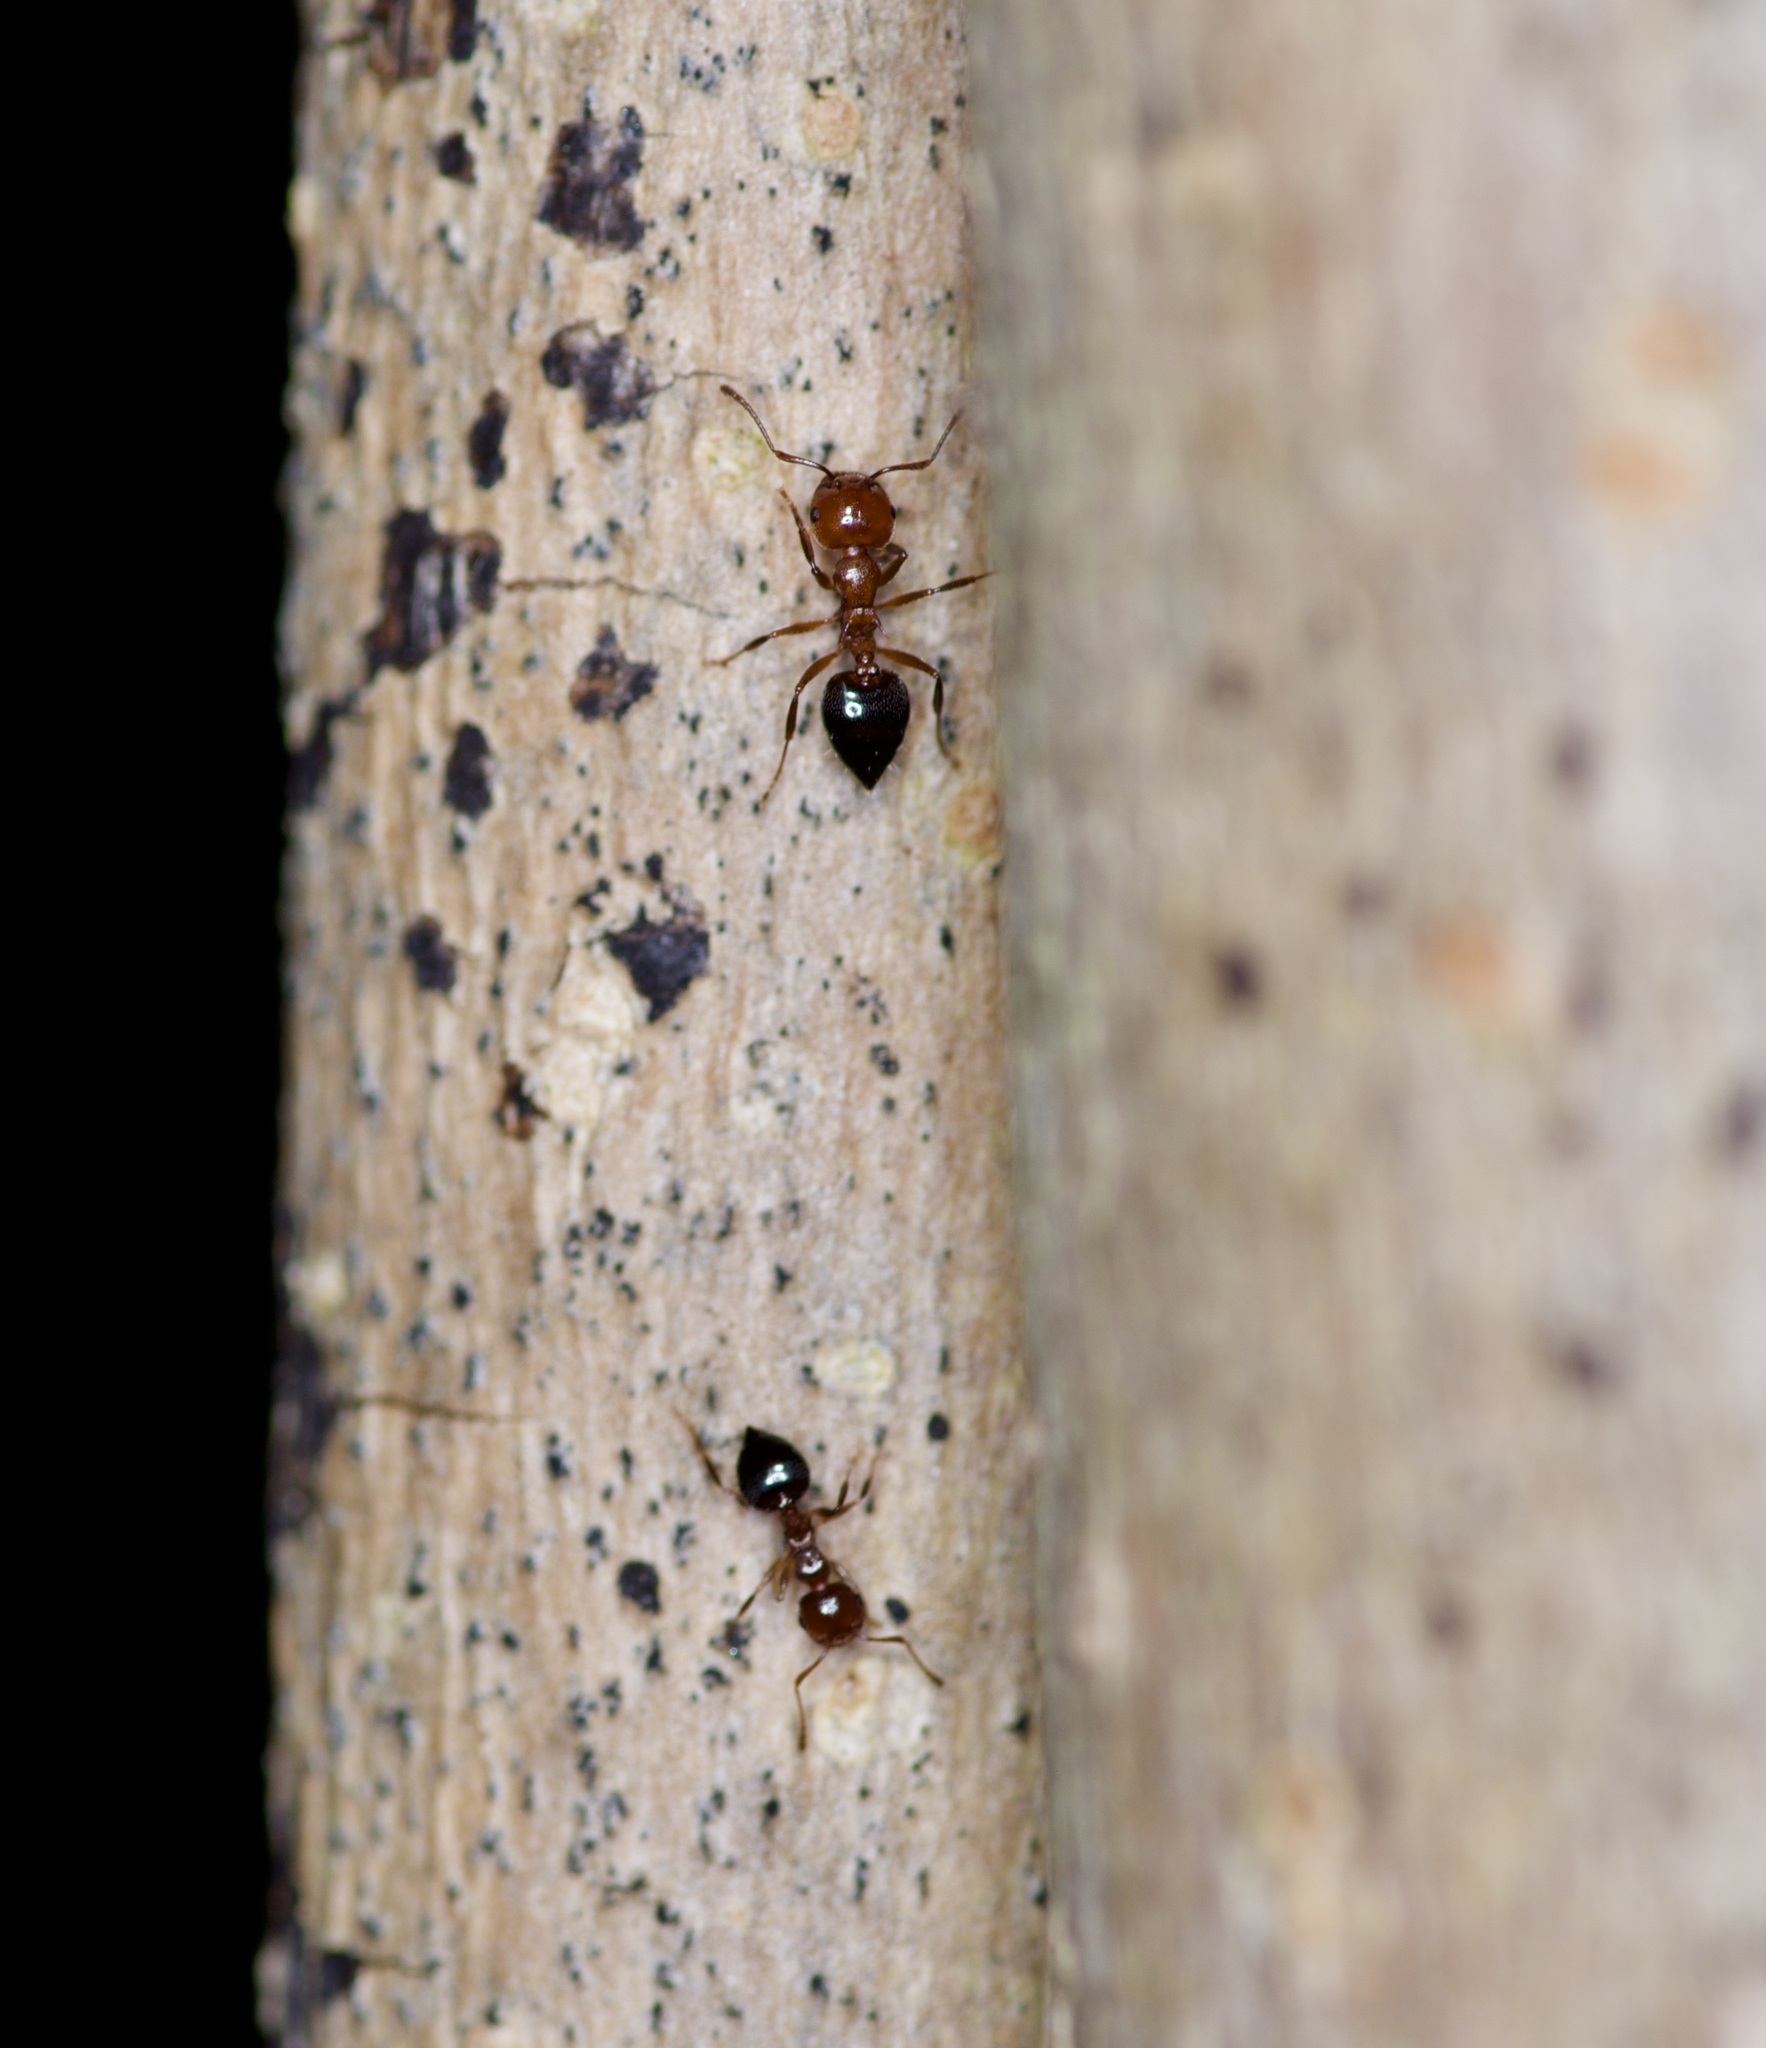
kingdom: Animalia
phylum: Arthropoda
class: Insecta
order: Hymenoptera
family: Formicidae
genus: Crematogaster
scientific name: Crematogaster laeviuscula
